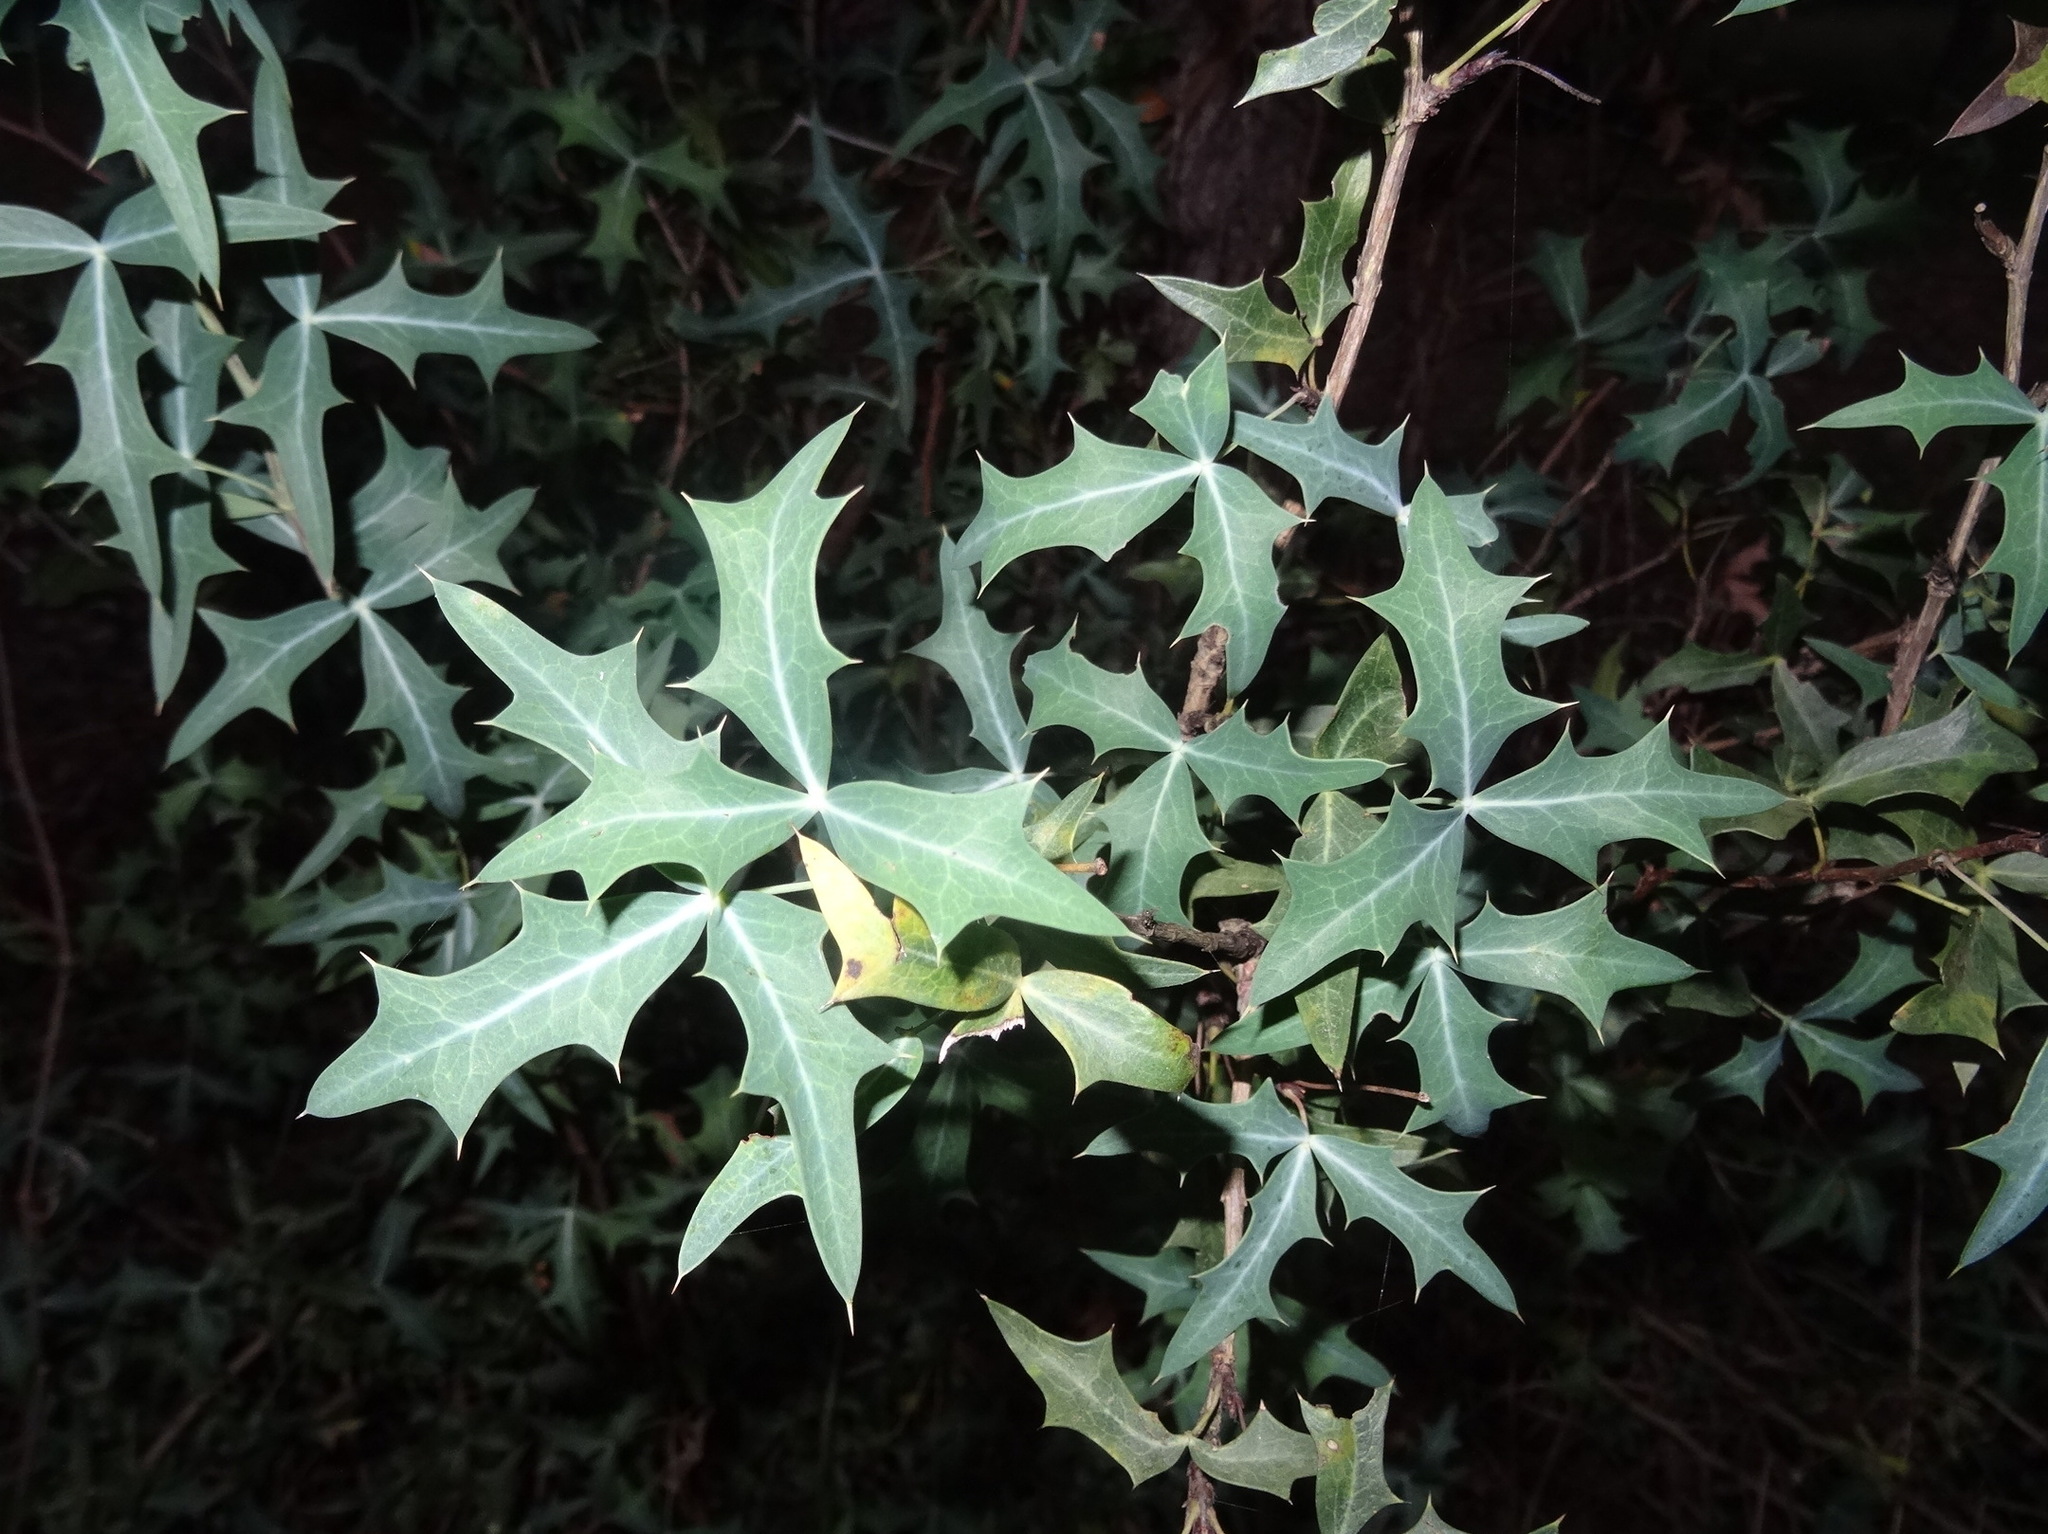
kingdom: Plantae
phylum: Tracheophyta
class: Magnoliopsida
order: Ranunculales
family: Berberidaceae
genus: Alloberberis
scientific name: Alloberberis trifoliolata
